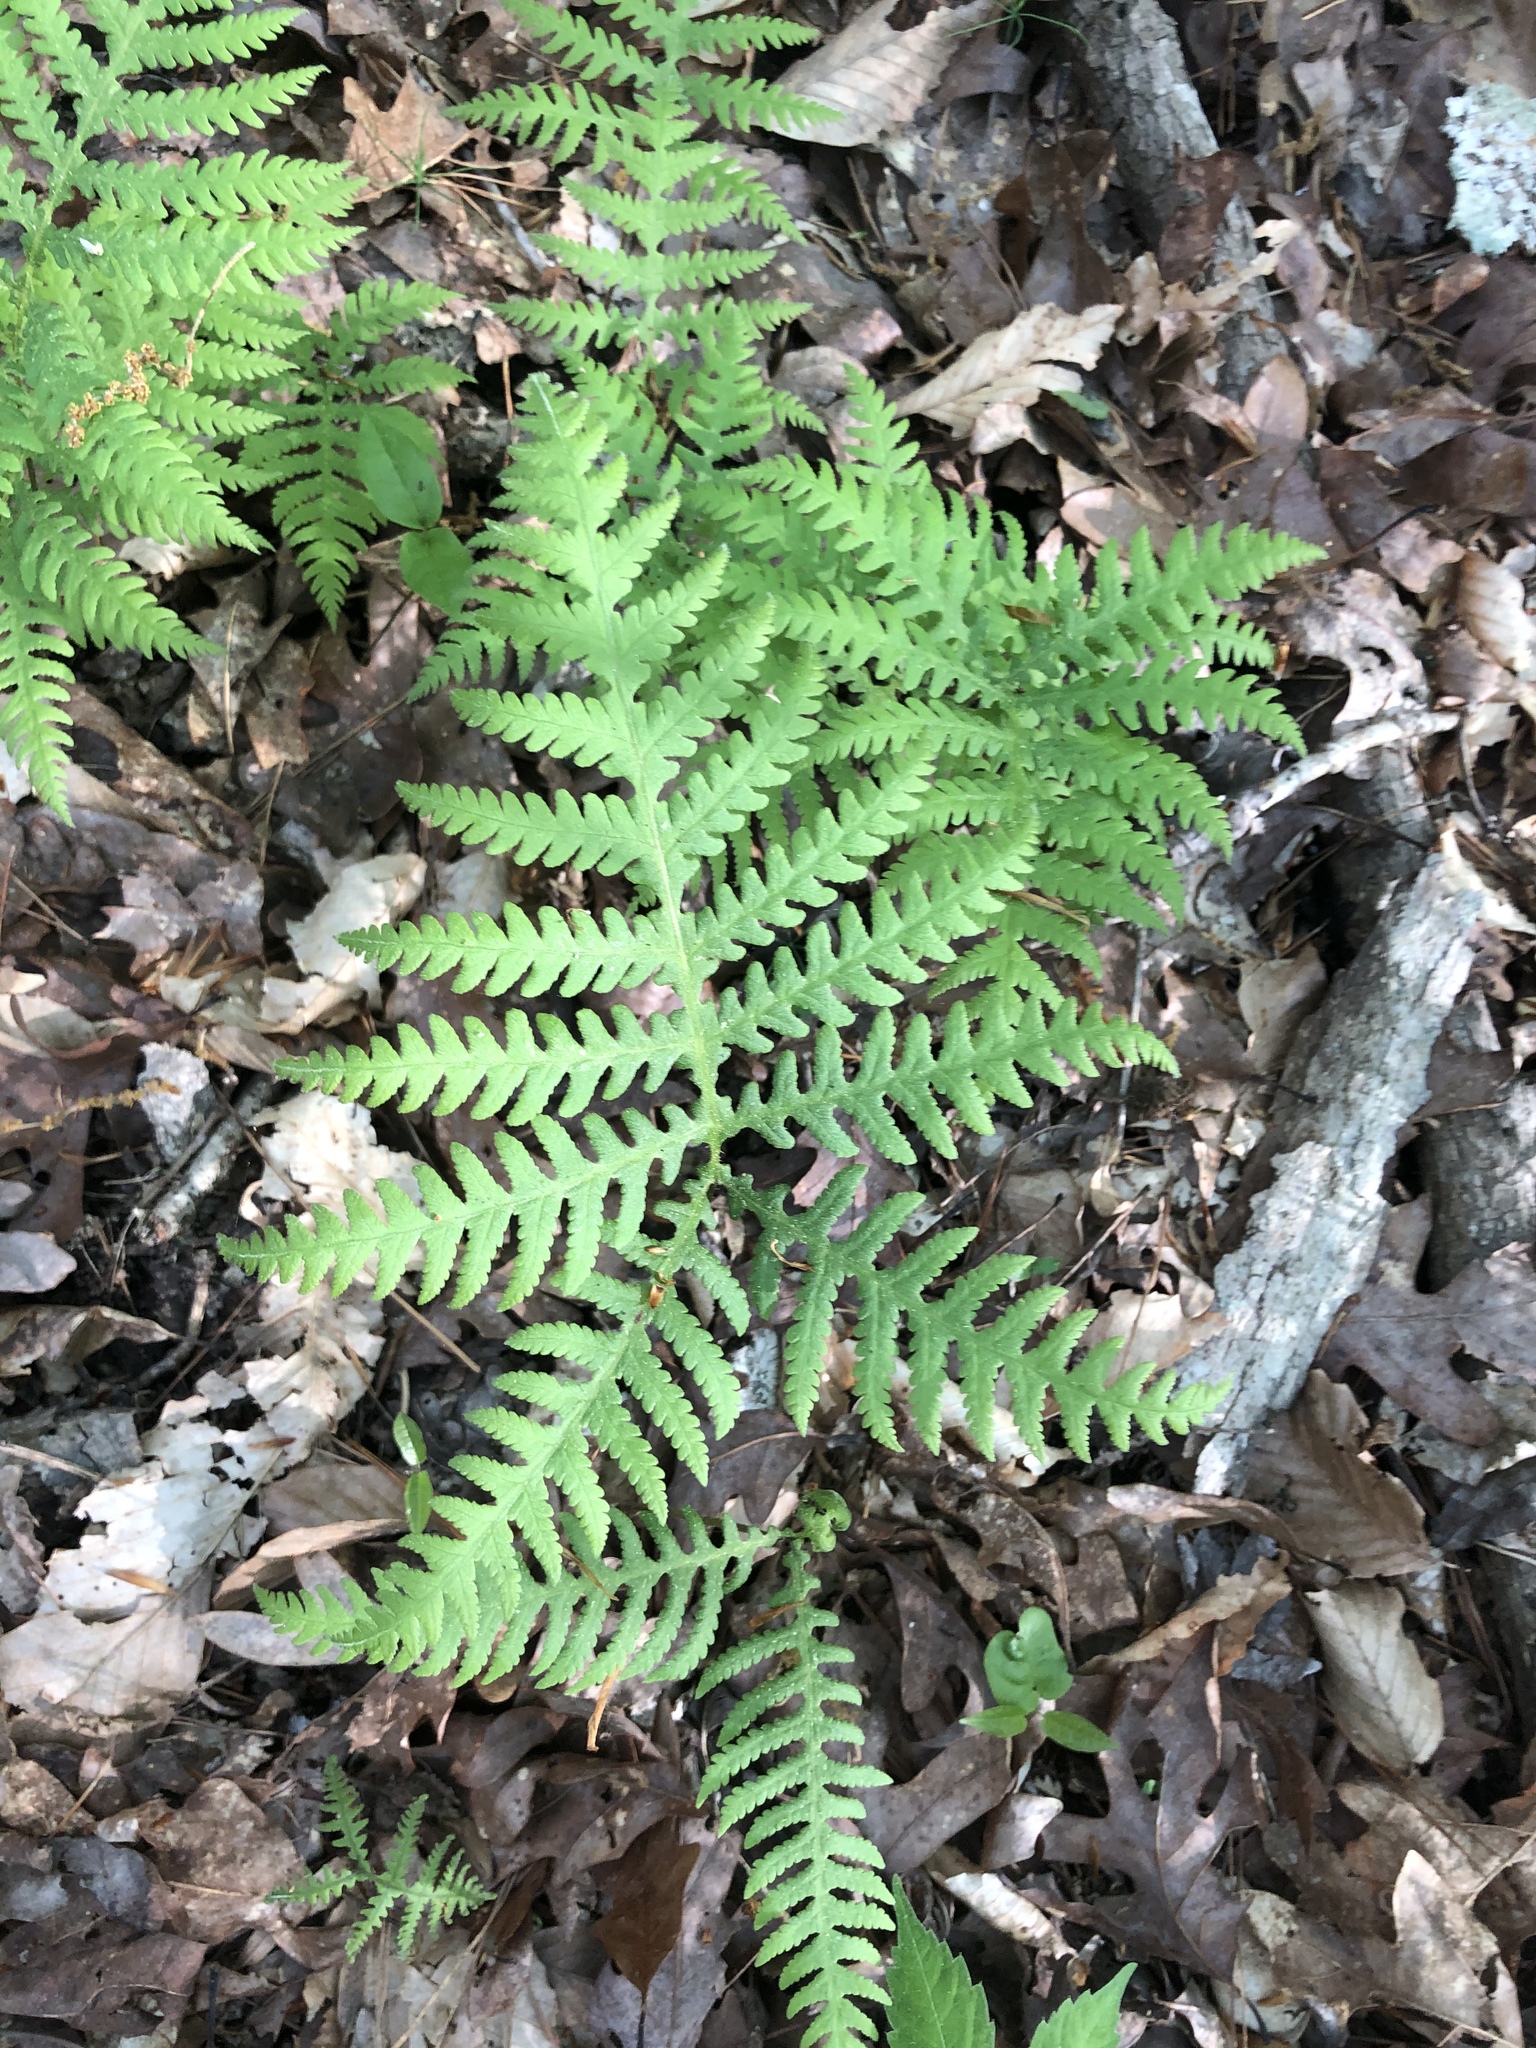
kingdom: Plantae
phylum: Tracheophyta
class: Polypodiopsida
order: Polypodiales
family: Thelypteridaceae
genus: Phegopteris
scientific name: Phegopteris hexagonoptera
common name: Broad beech fern
